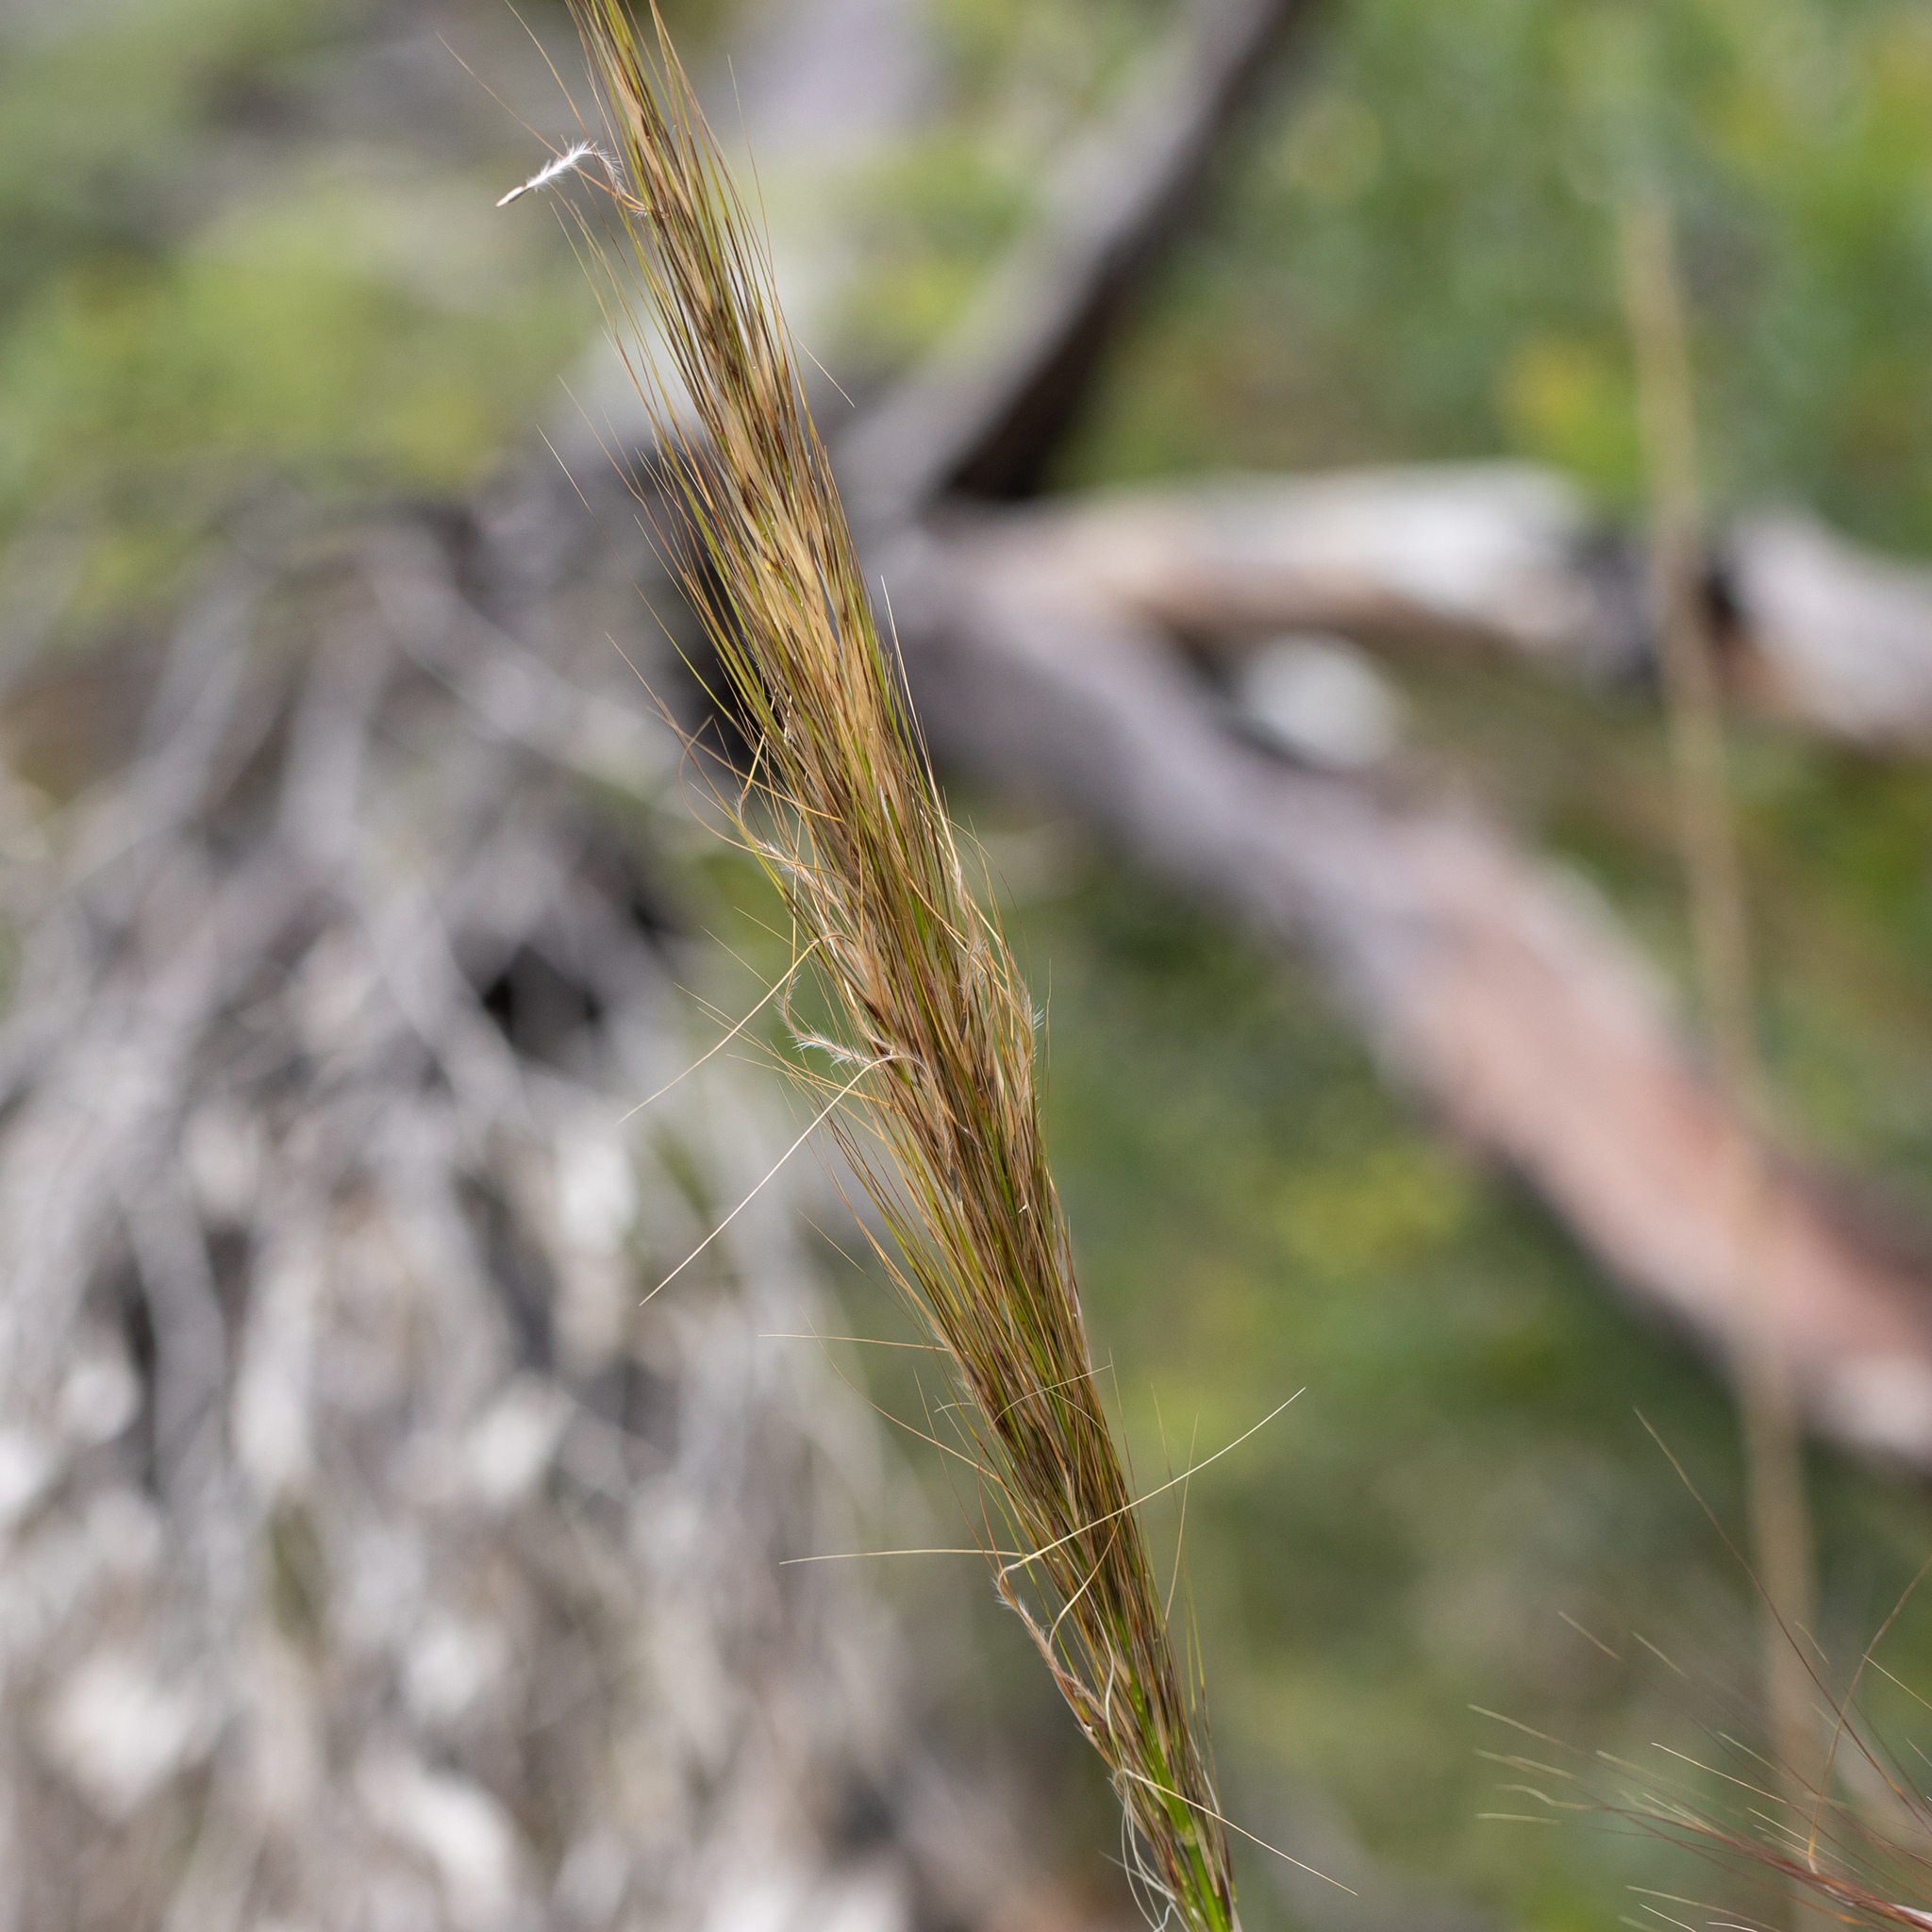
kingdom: Plantae
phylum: Tracheophyta
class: Liliopsida
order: Poales
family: Poaceae
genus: Austrostipa
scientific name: Austrostipa mollis
